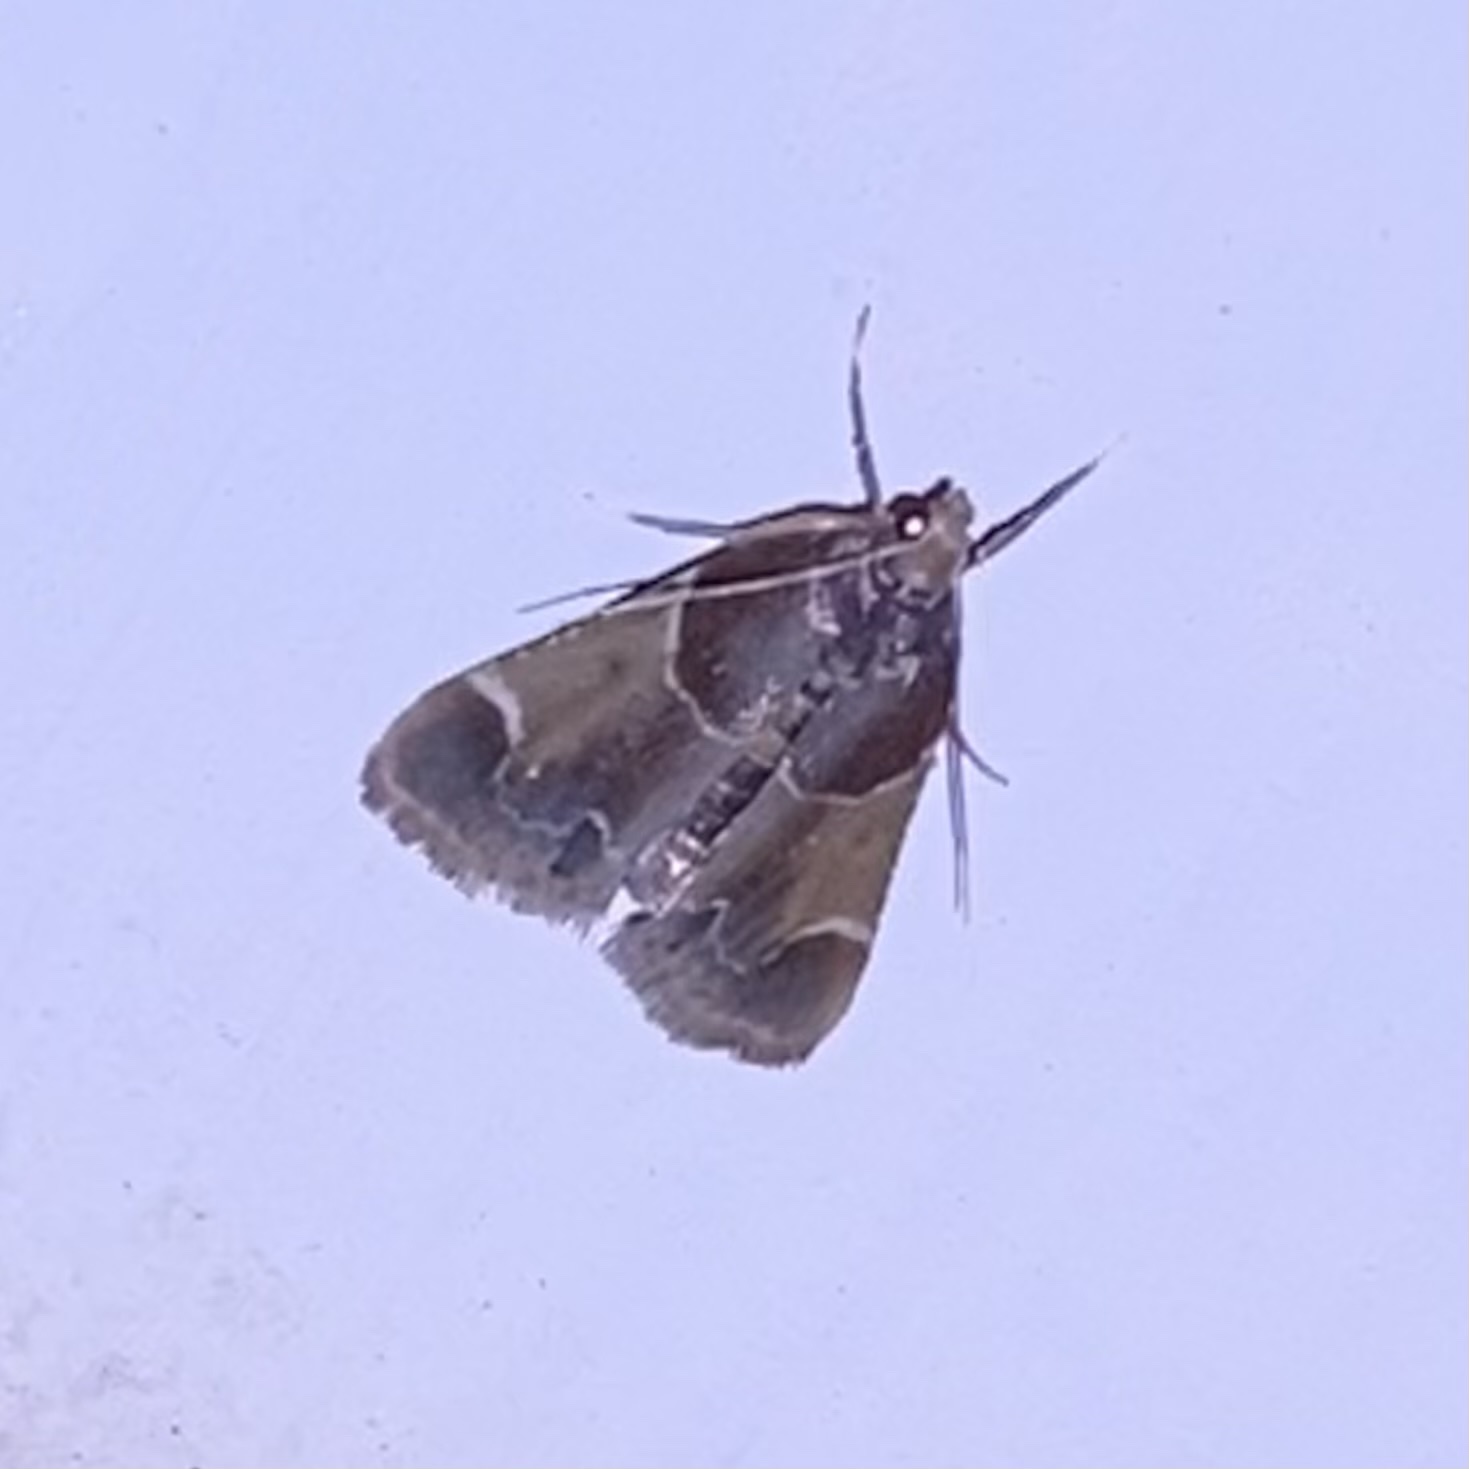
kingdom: Animalia
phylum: Arthropoda
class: Insecta
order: Lepidoptera
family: Pyralidae
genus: Pyralis
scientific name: Pyralis farinalis
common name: Meal moth
